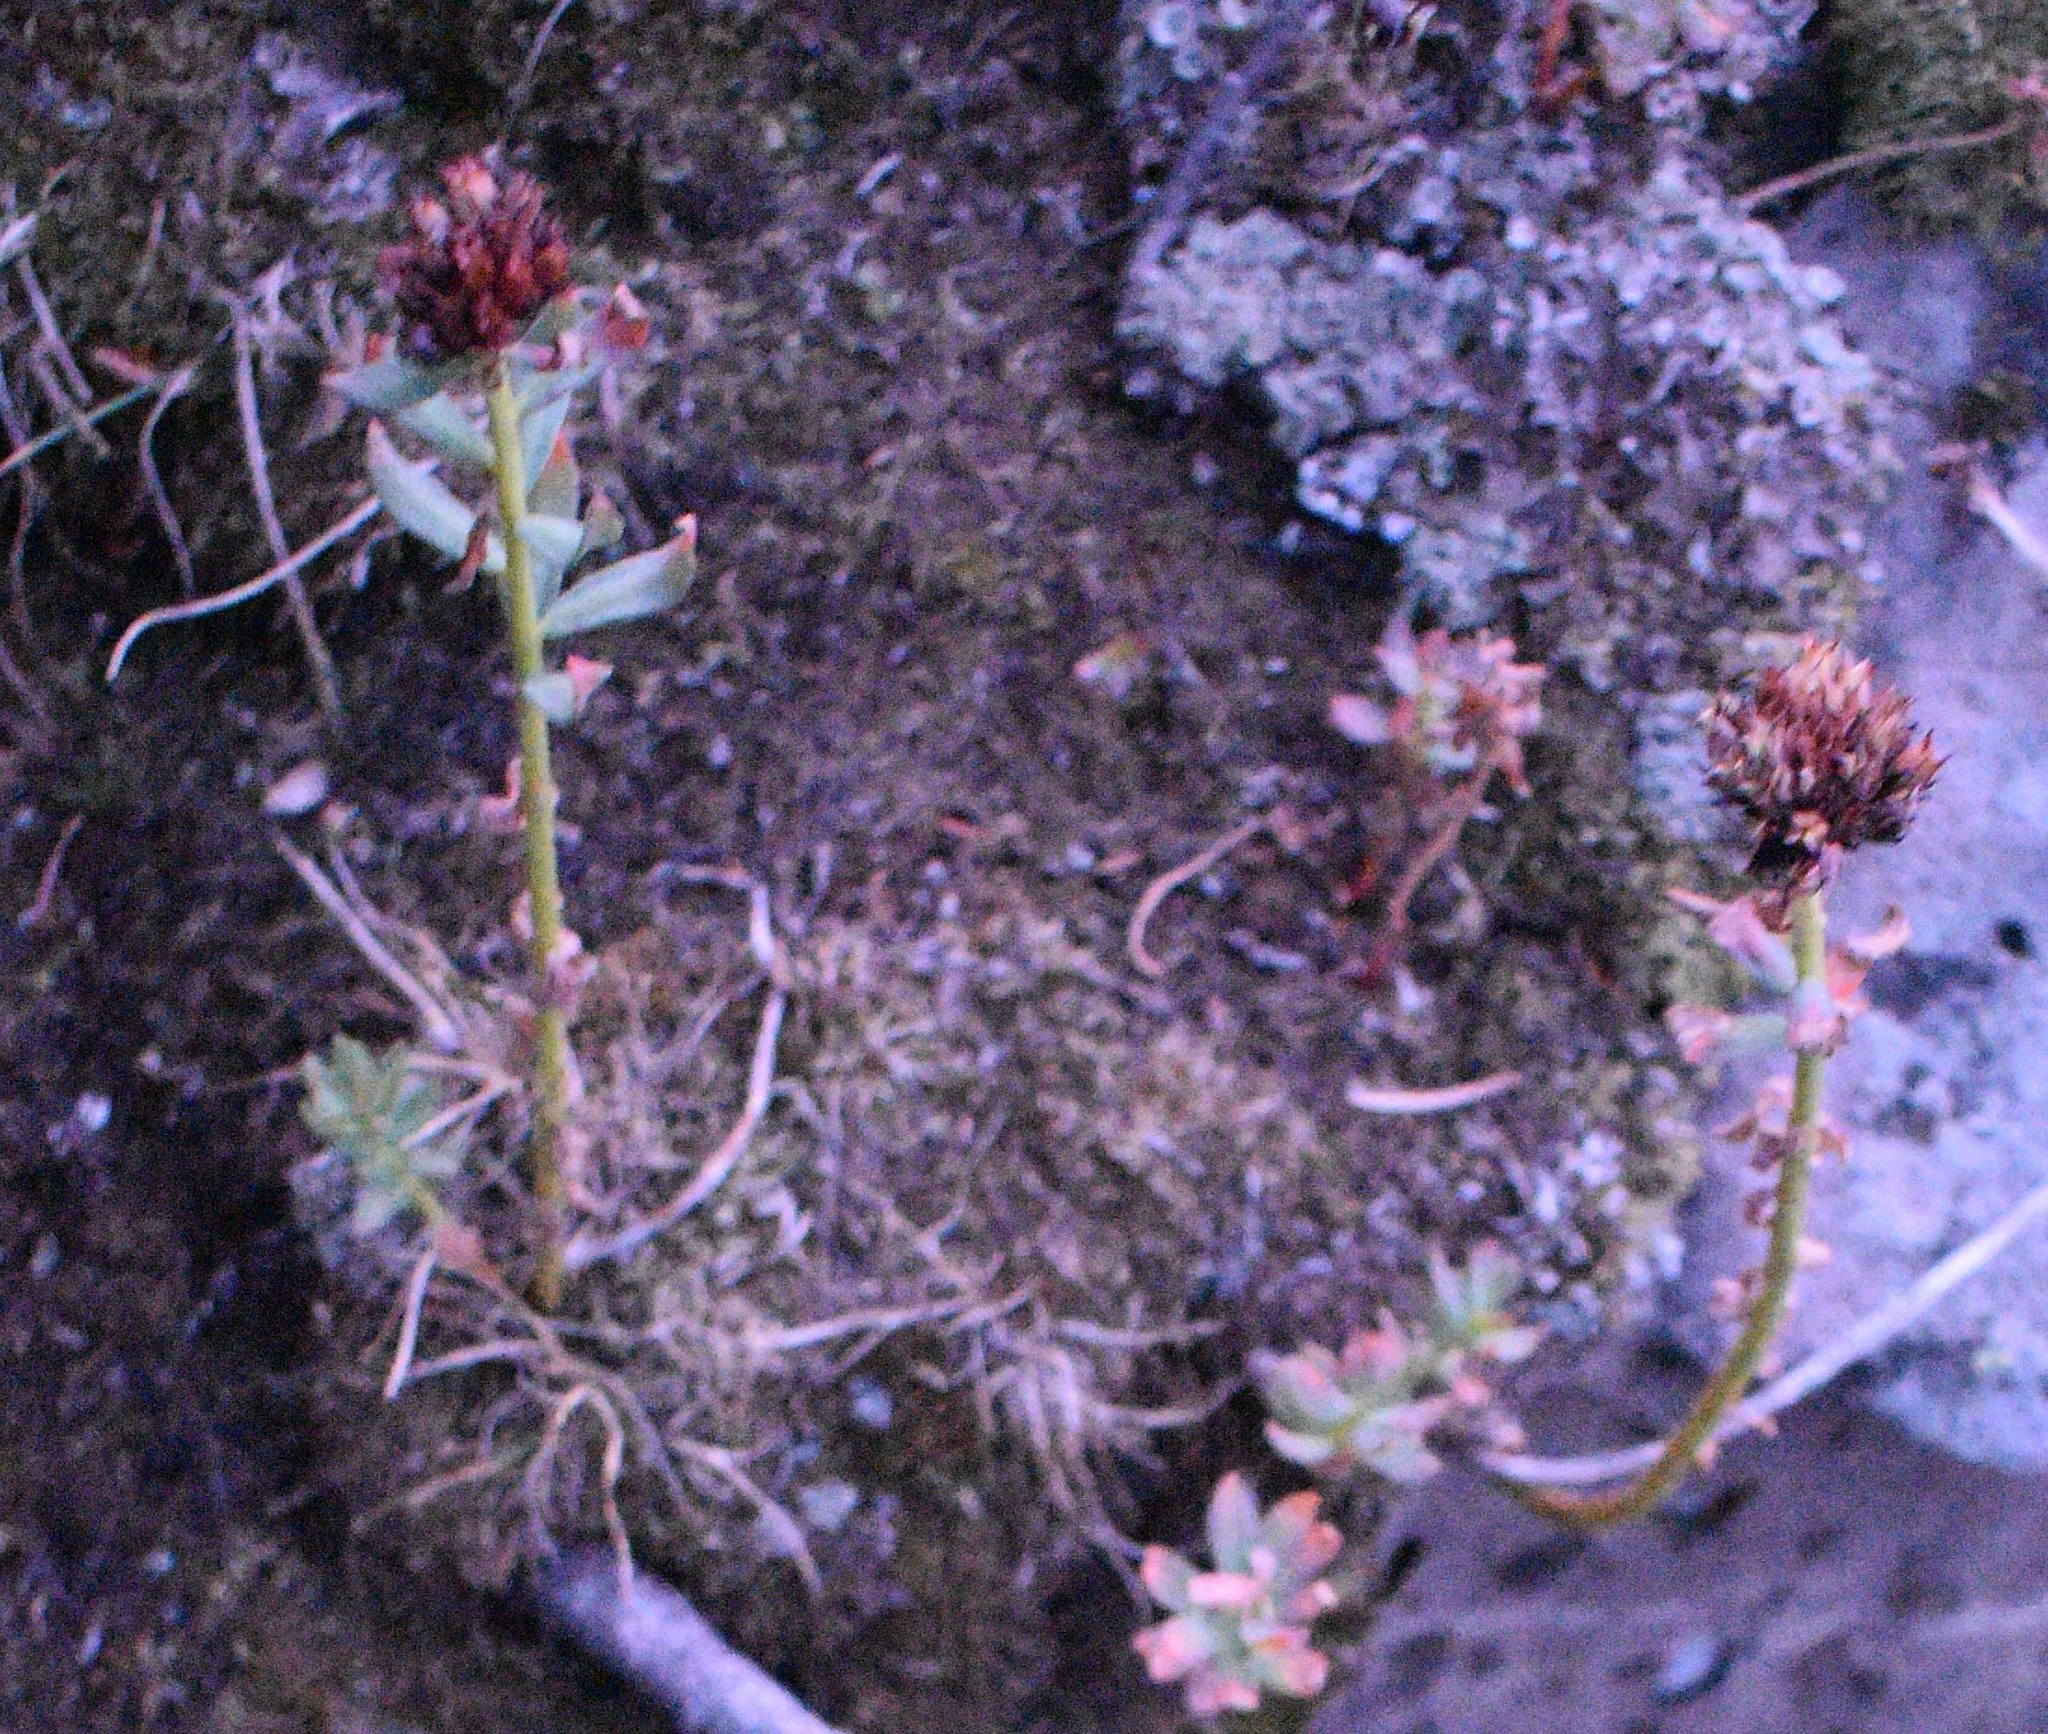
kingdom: Plantae
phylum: Tracheophyta
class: Magnoliopsida
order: Saxifragales
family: Crassulaceae
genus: Rhodiola
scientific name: Rhodiola rhodantha
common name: Red orpine
